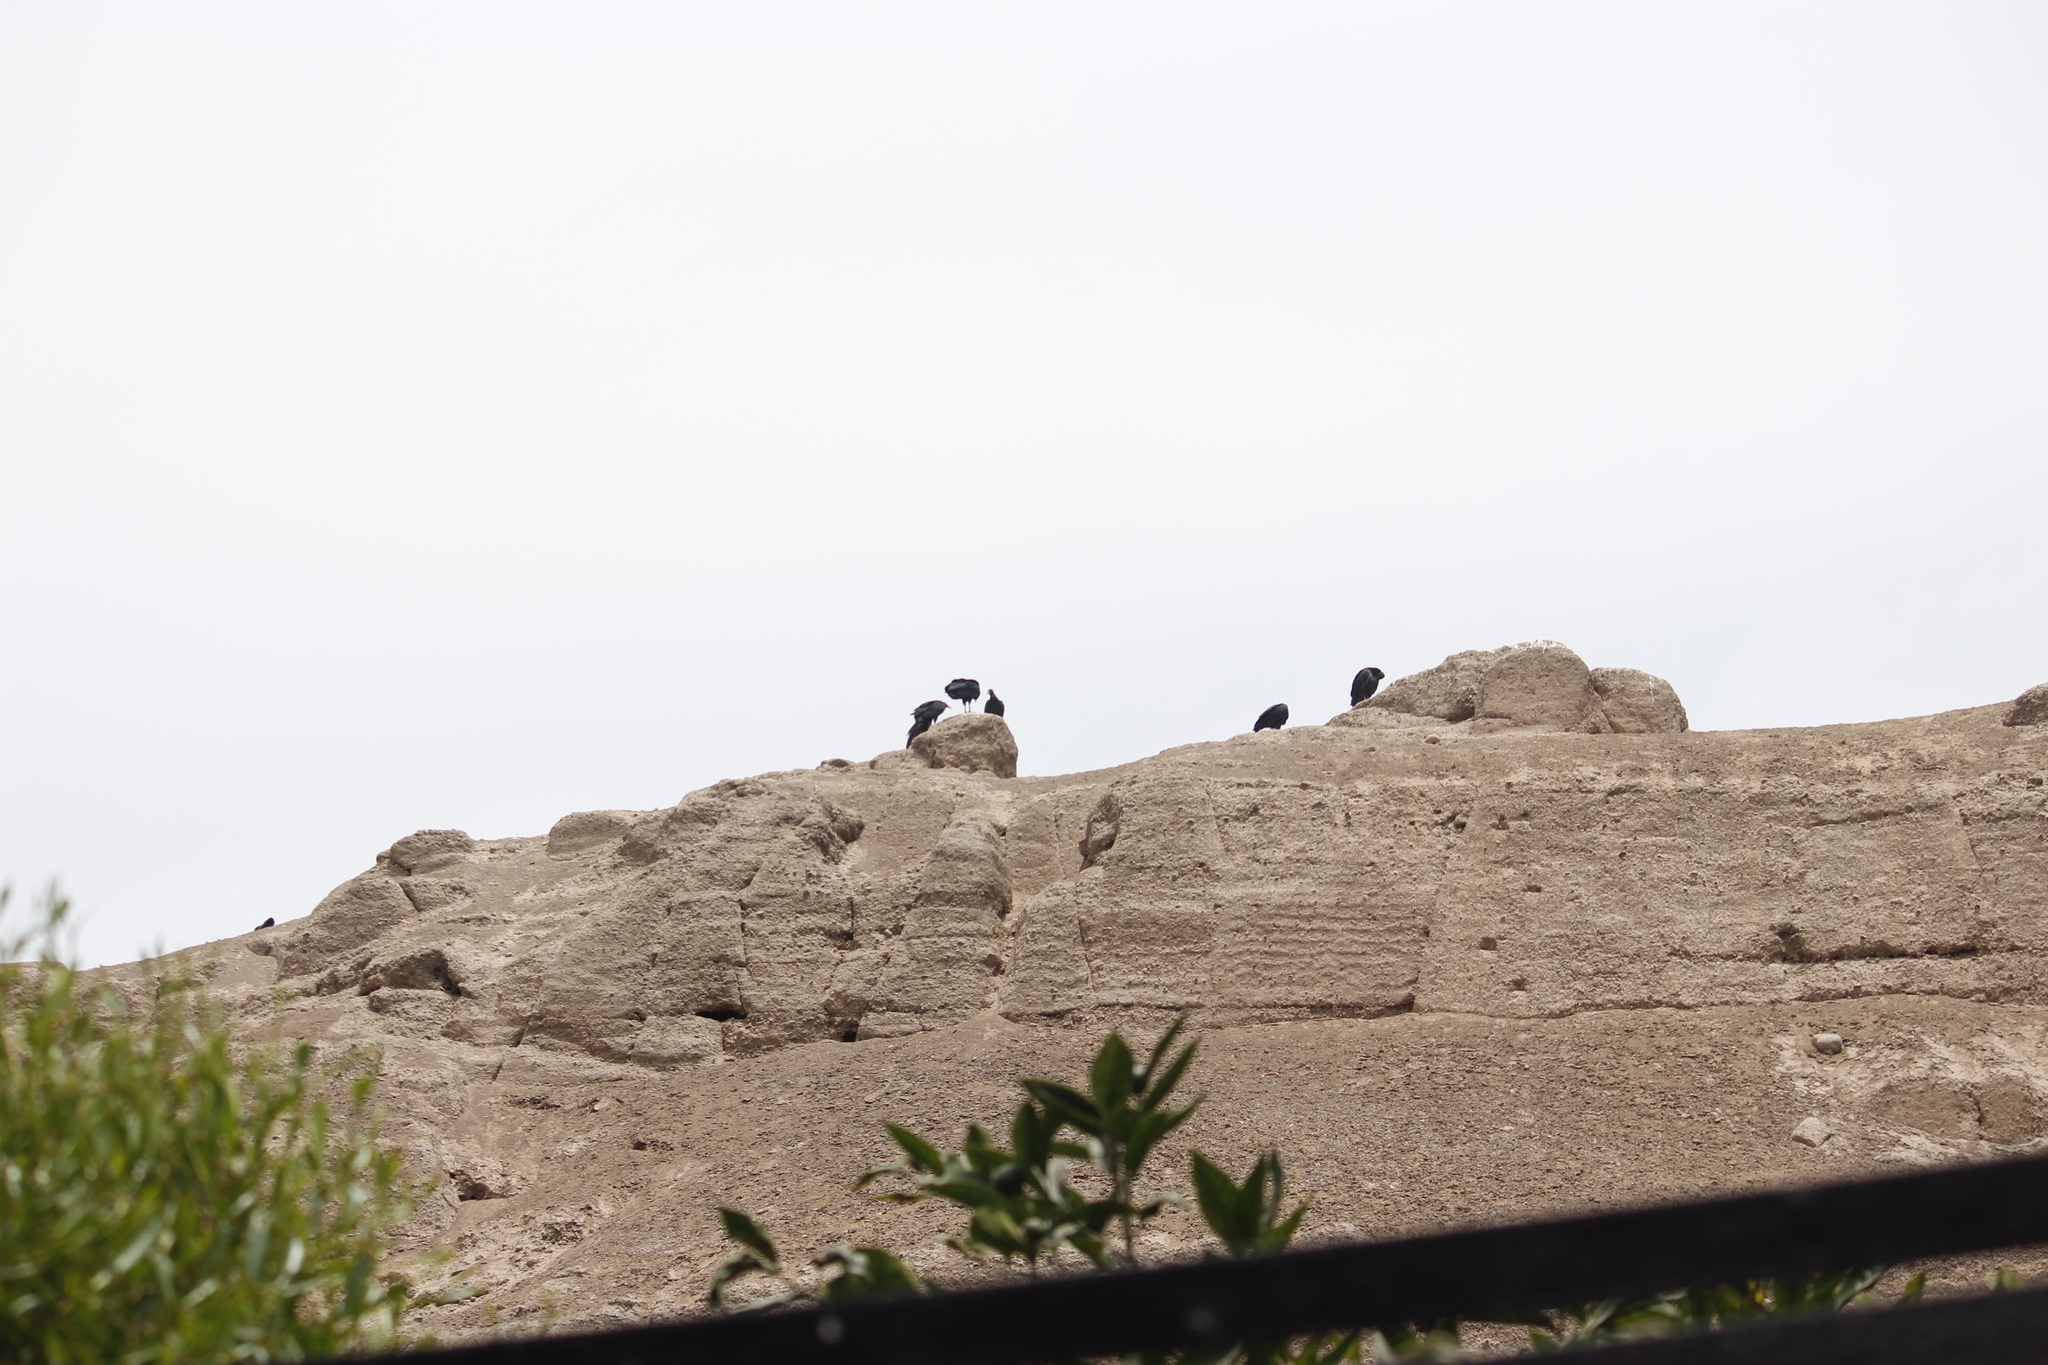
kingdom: Animalia
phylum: Chordata
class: Aves
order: Accipitriformes
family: Cathartidae
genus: Coragyps
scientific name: Coragyps atratus
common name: Black vulture
